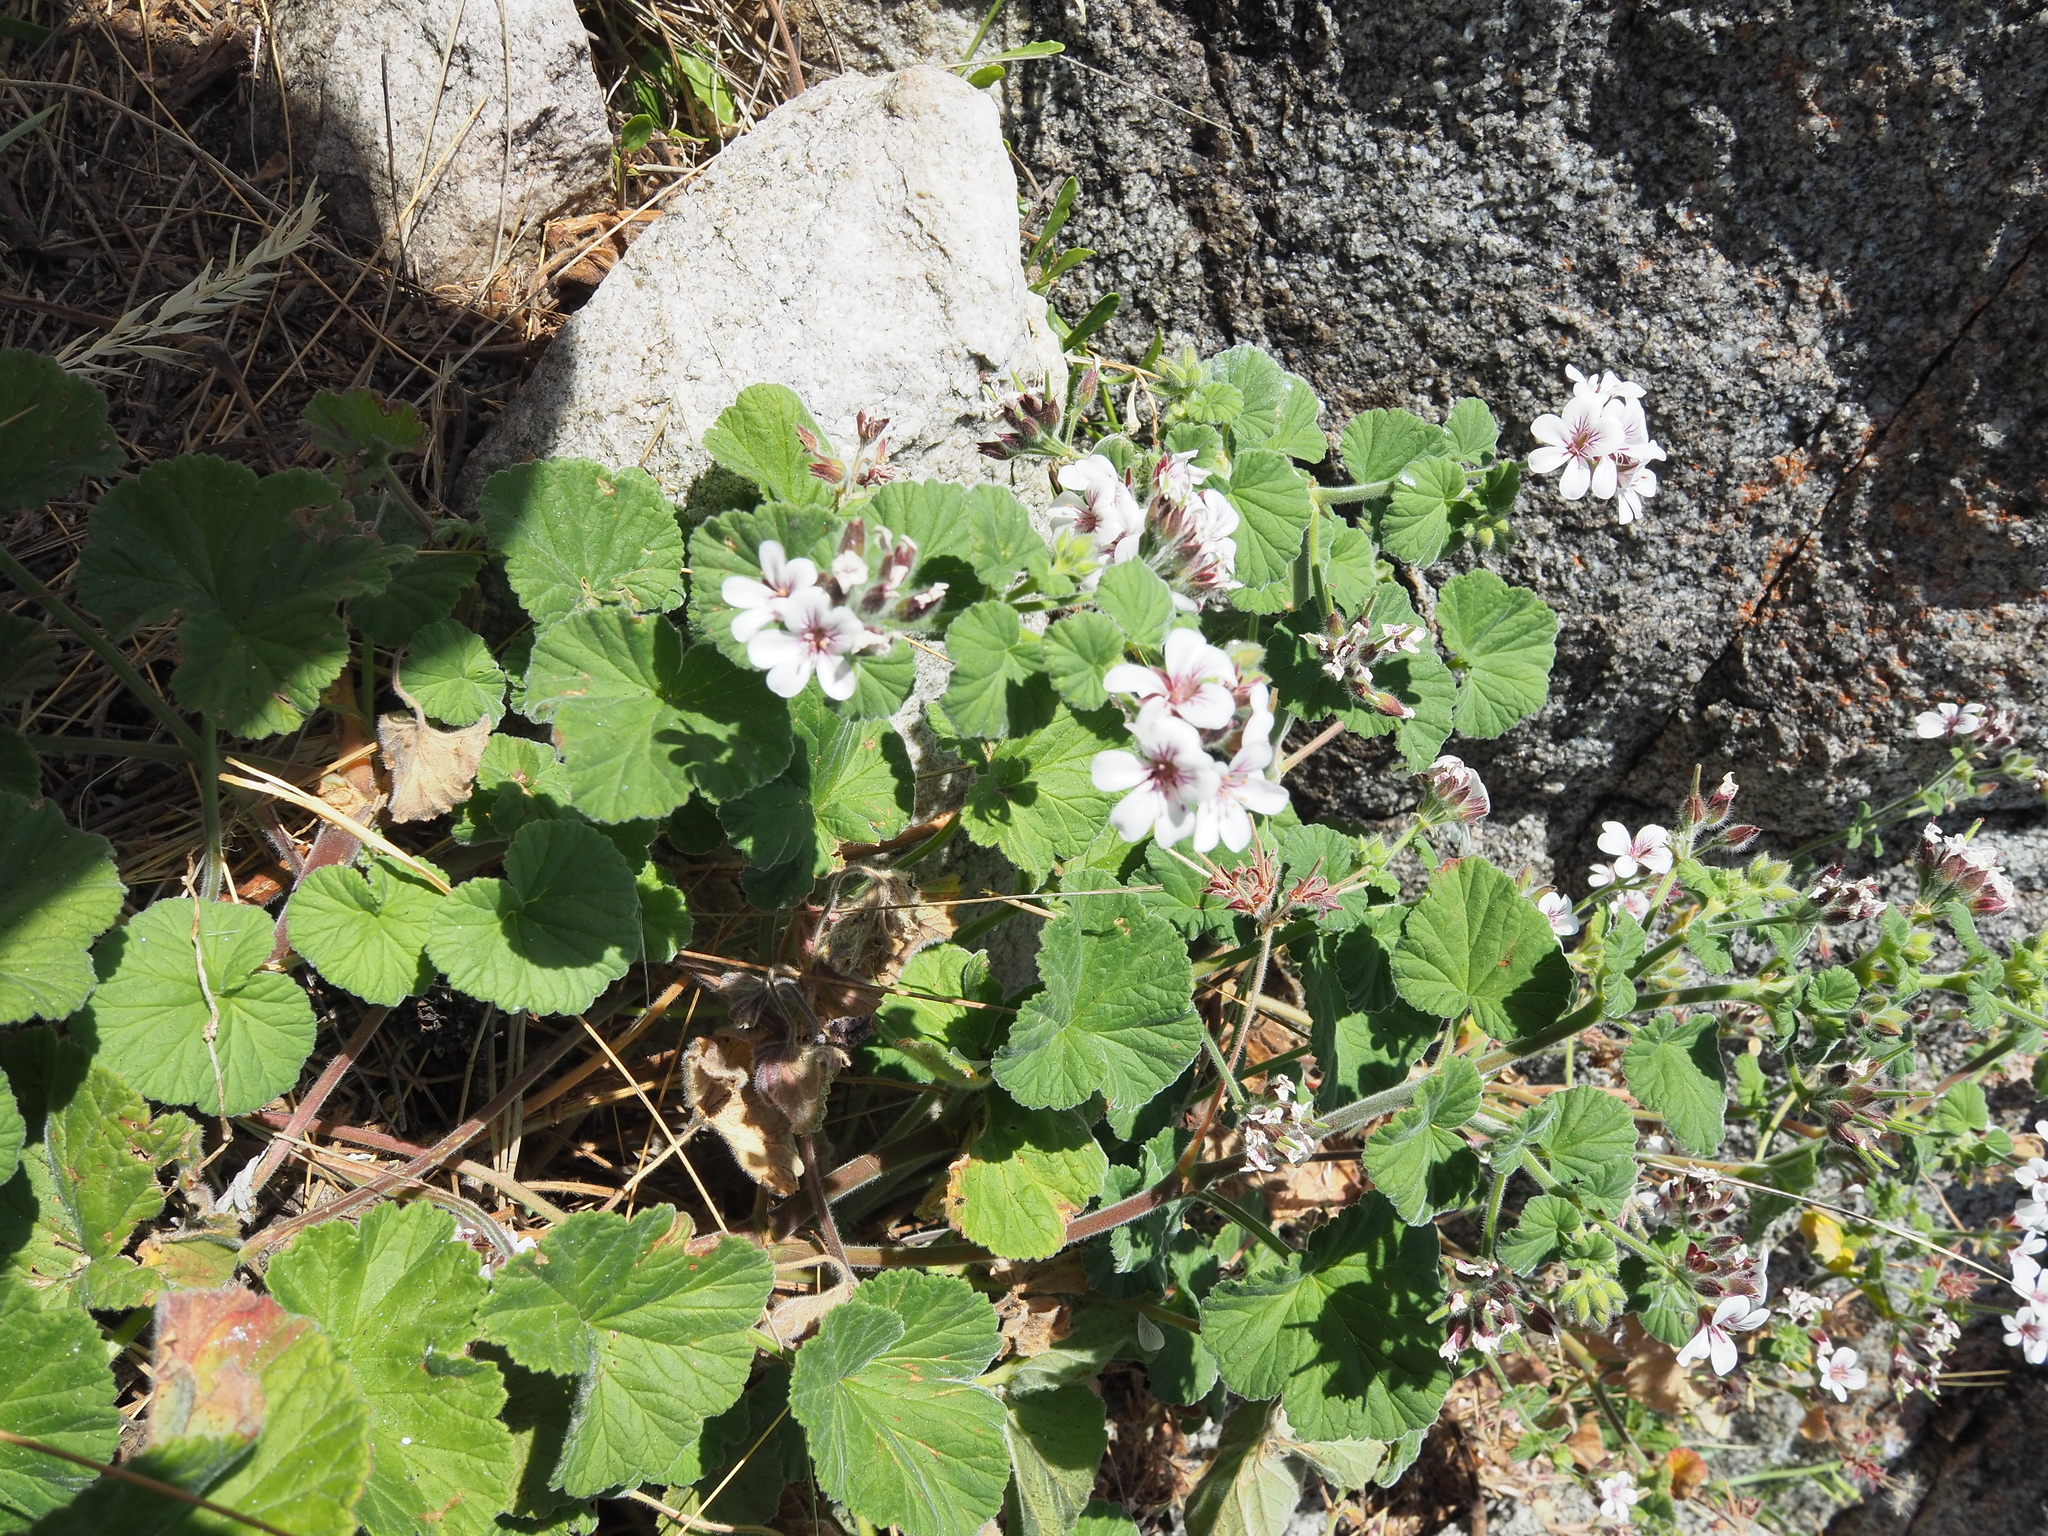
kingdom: Plantae
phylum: Tracheophyta
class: Magnoliopsida
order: Geraniales
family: Geraniaceae
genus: Pelargonium
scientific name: Pelargonium australe
